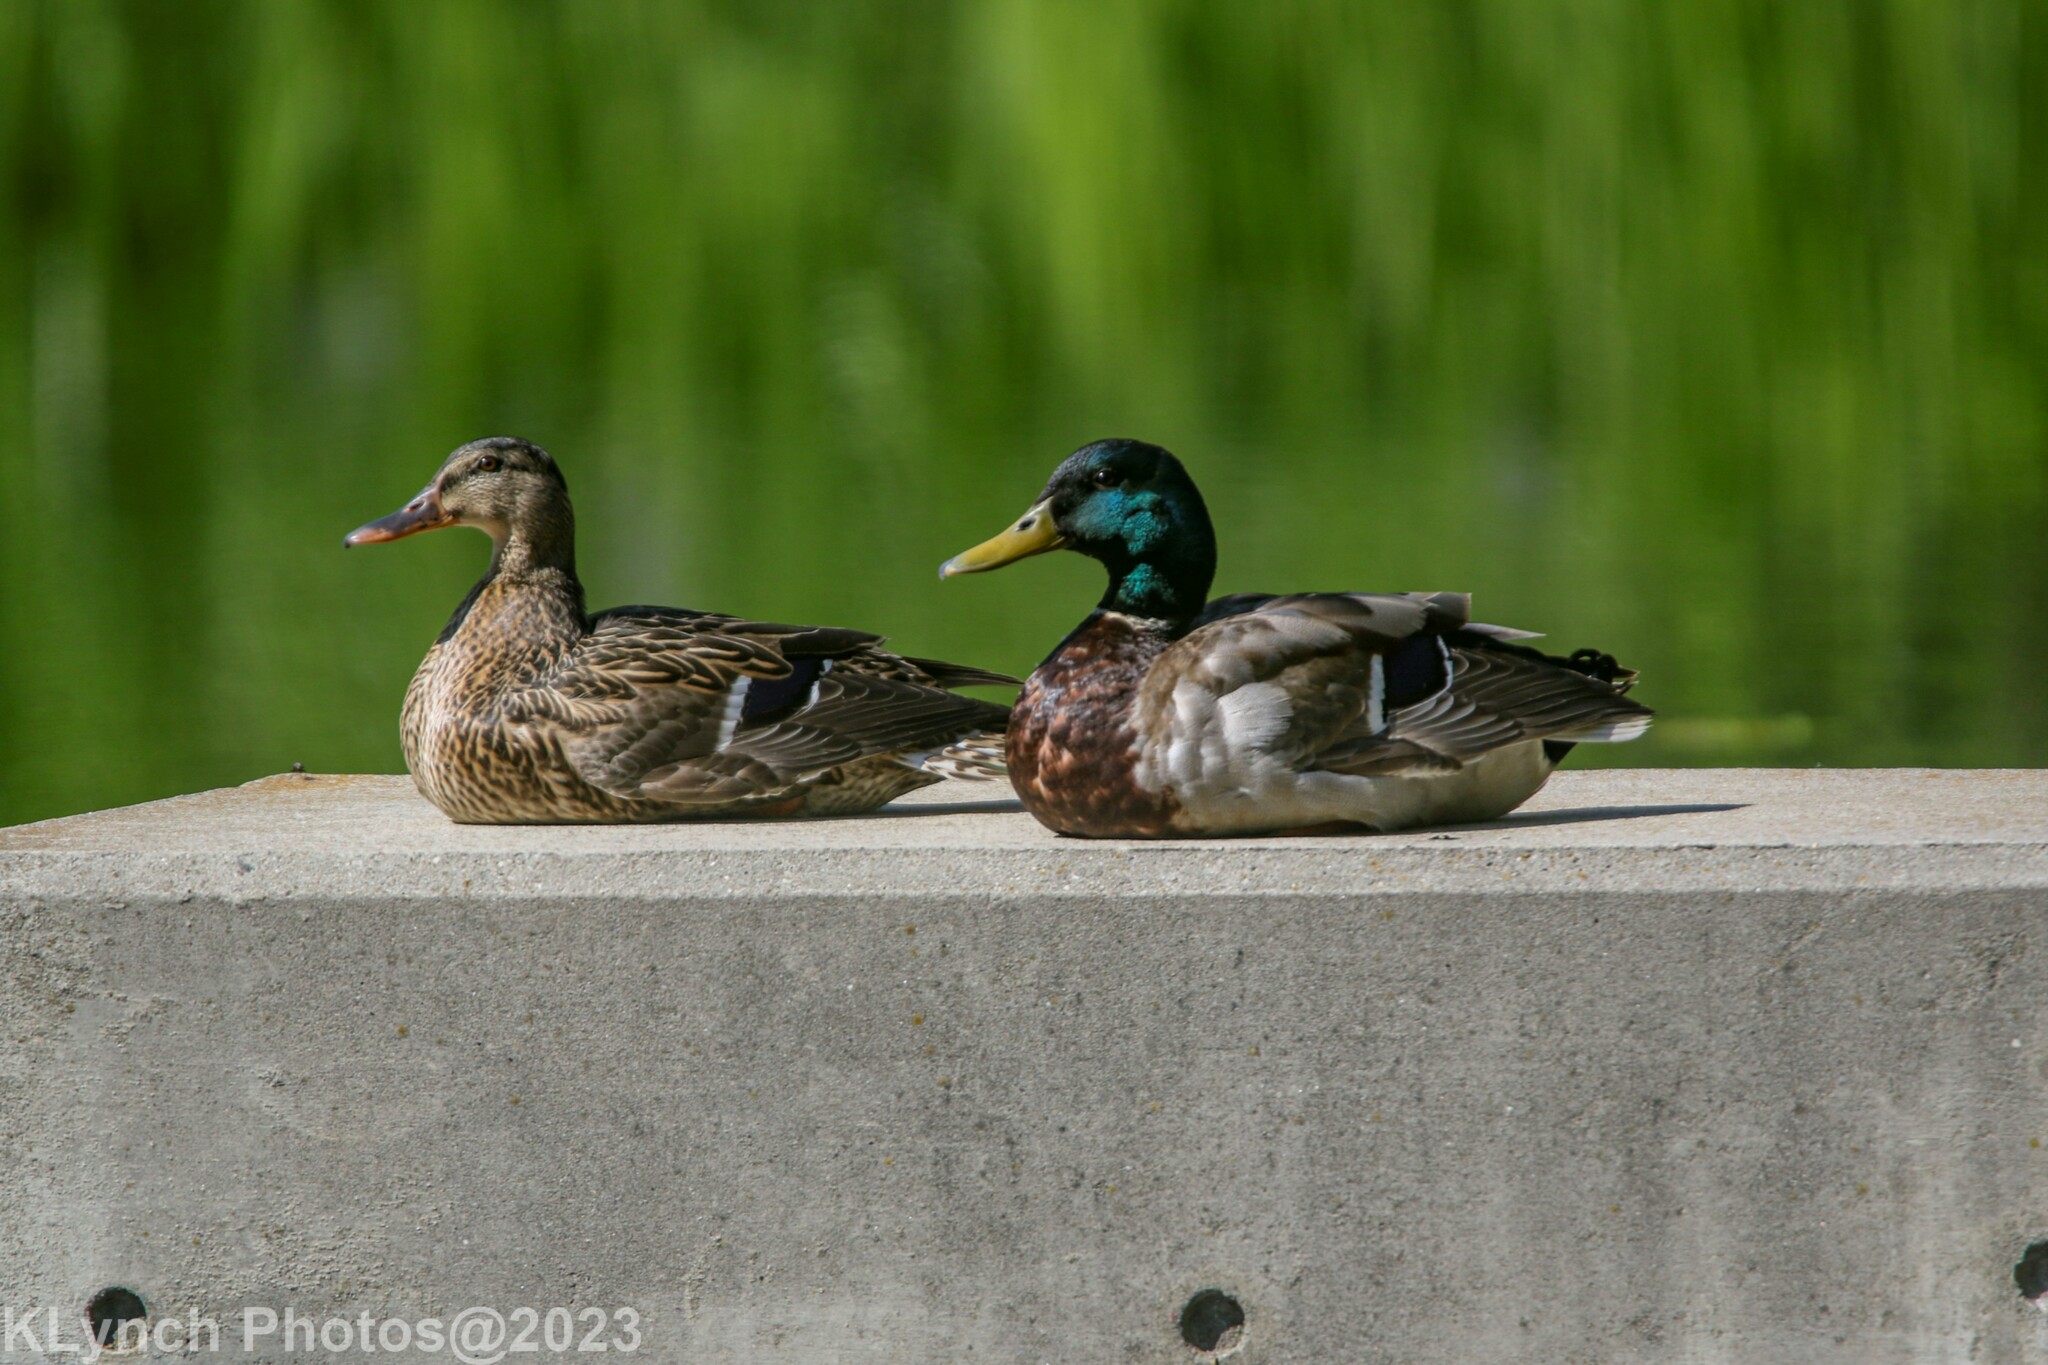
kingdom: Animalia
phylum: Chordata
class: Aves
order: Anseriformes
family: Anatidae
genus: Anas
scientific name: Anas platyrhynchos
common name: Mallard
